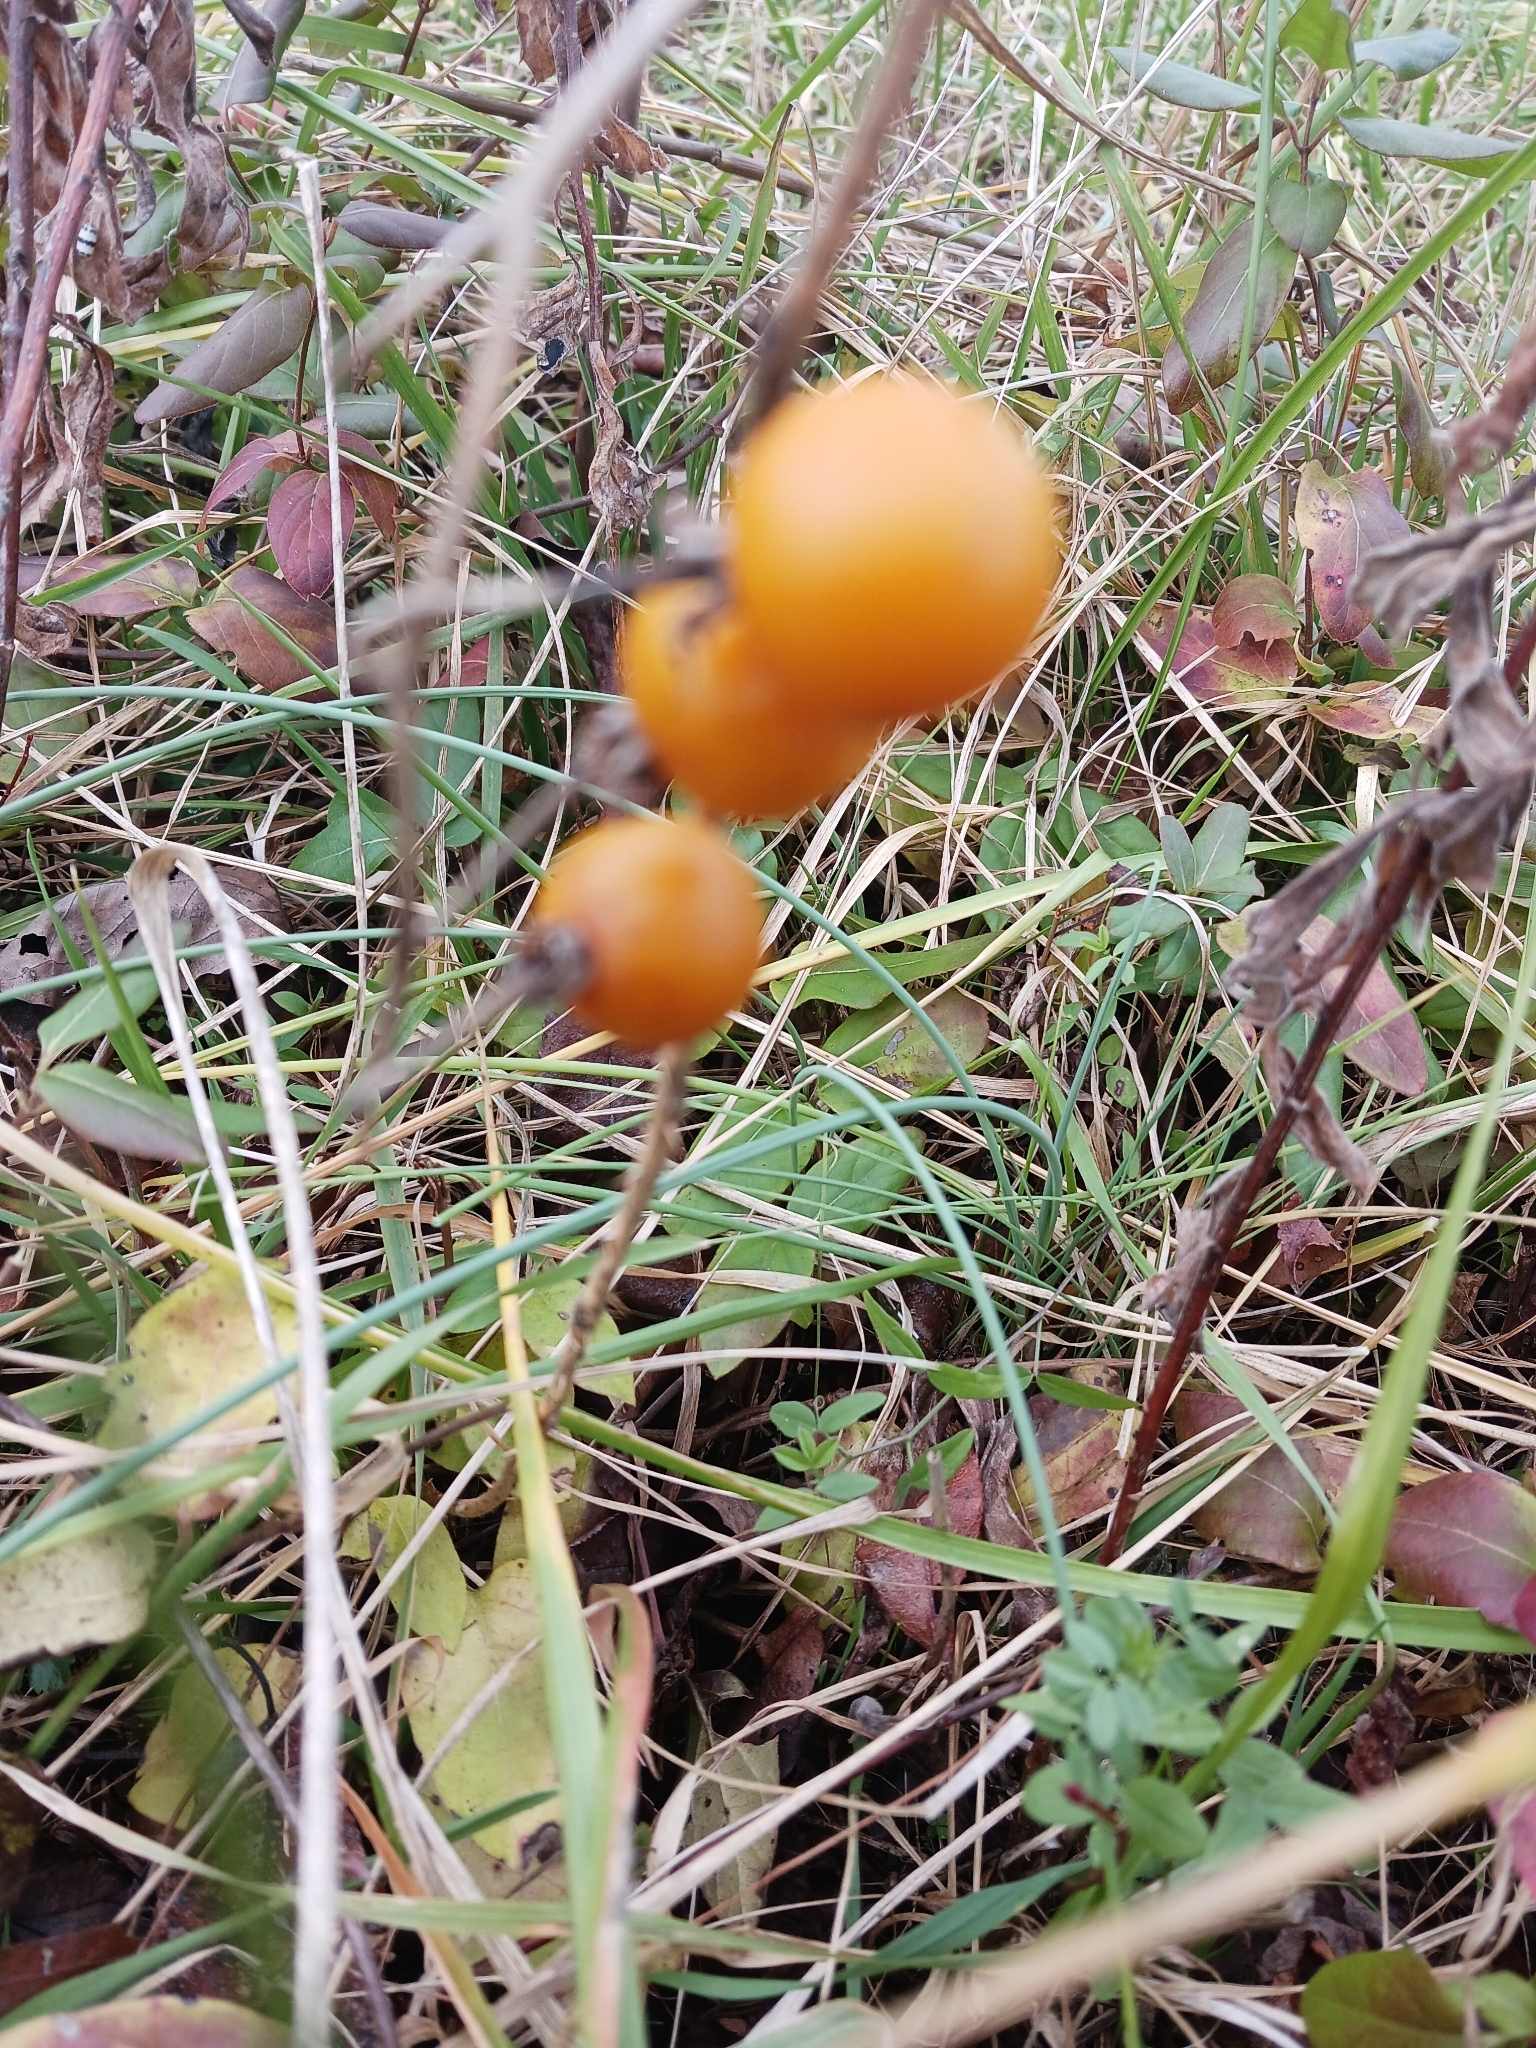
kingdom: Plantae
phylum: Tracheophyta
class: Magnoliopsida
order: Solanales
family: Solanaceae
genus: Solanum
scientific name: Solanum carolinense
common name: Horse-nettle
